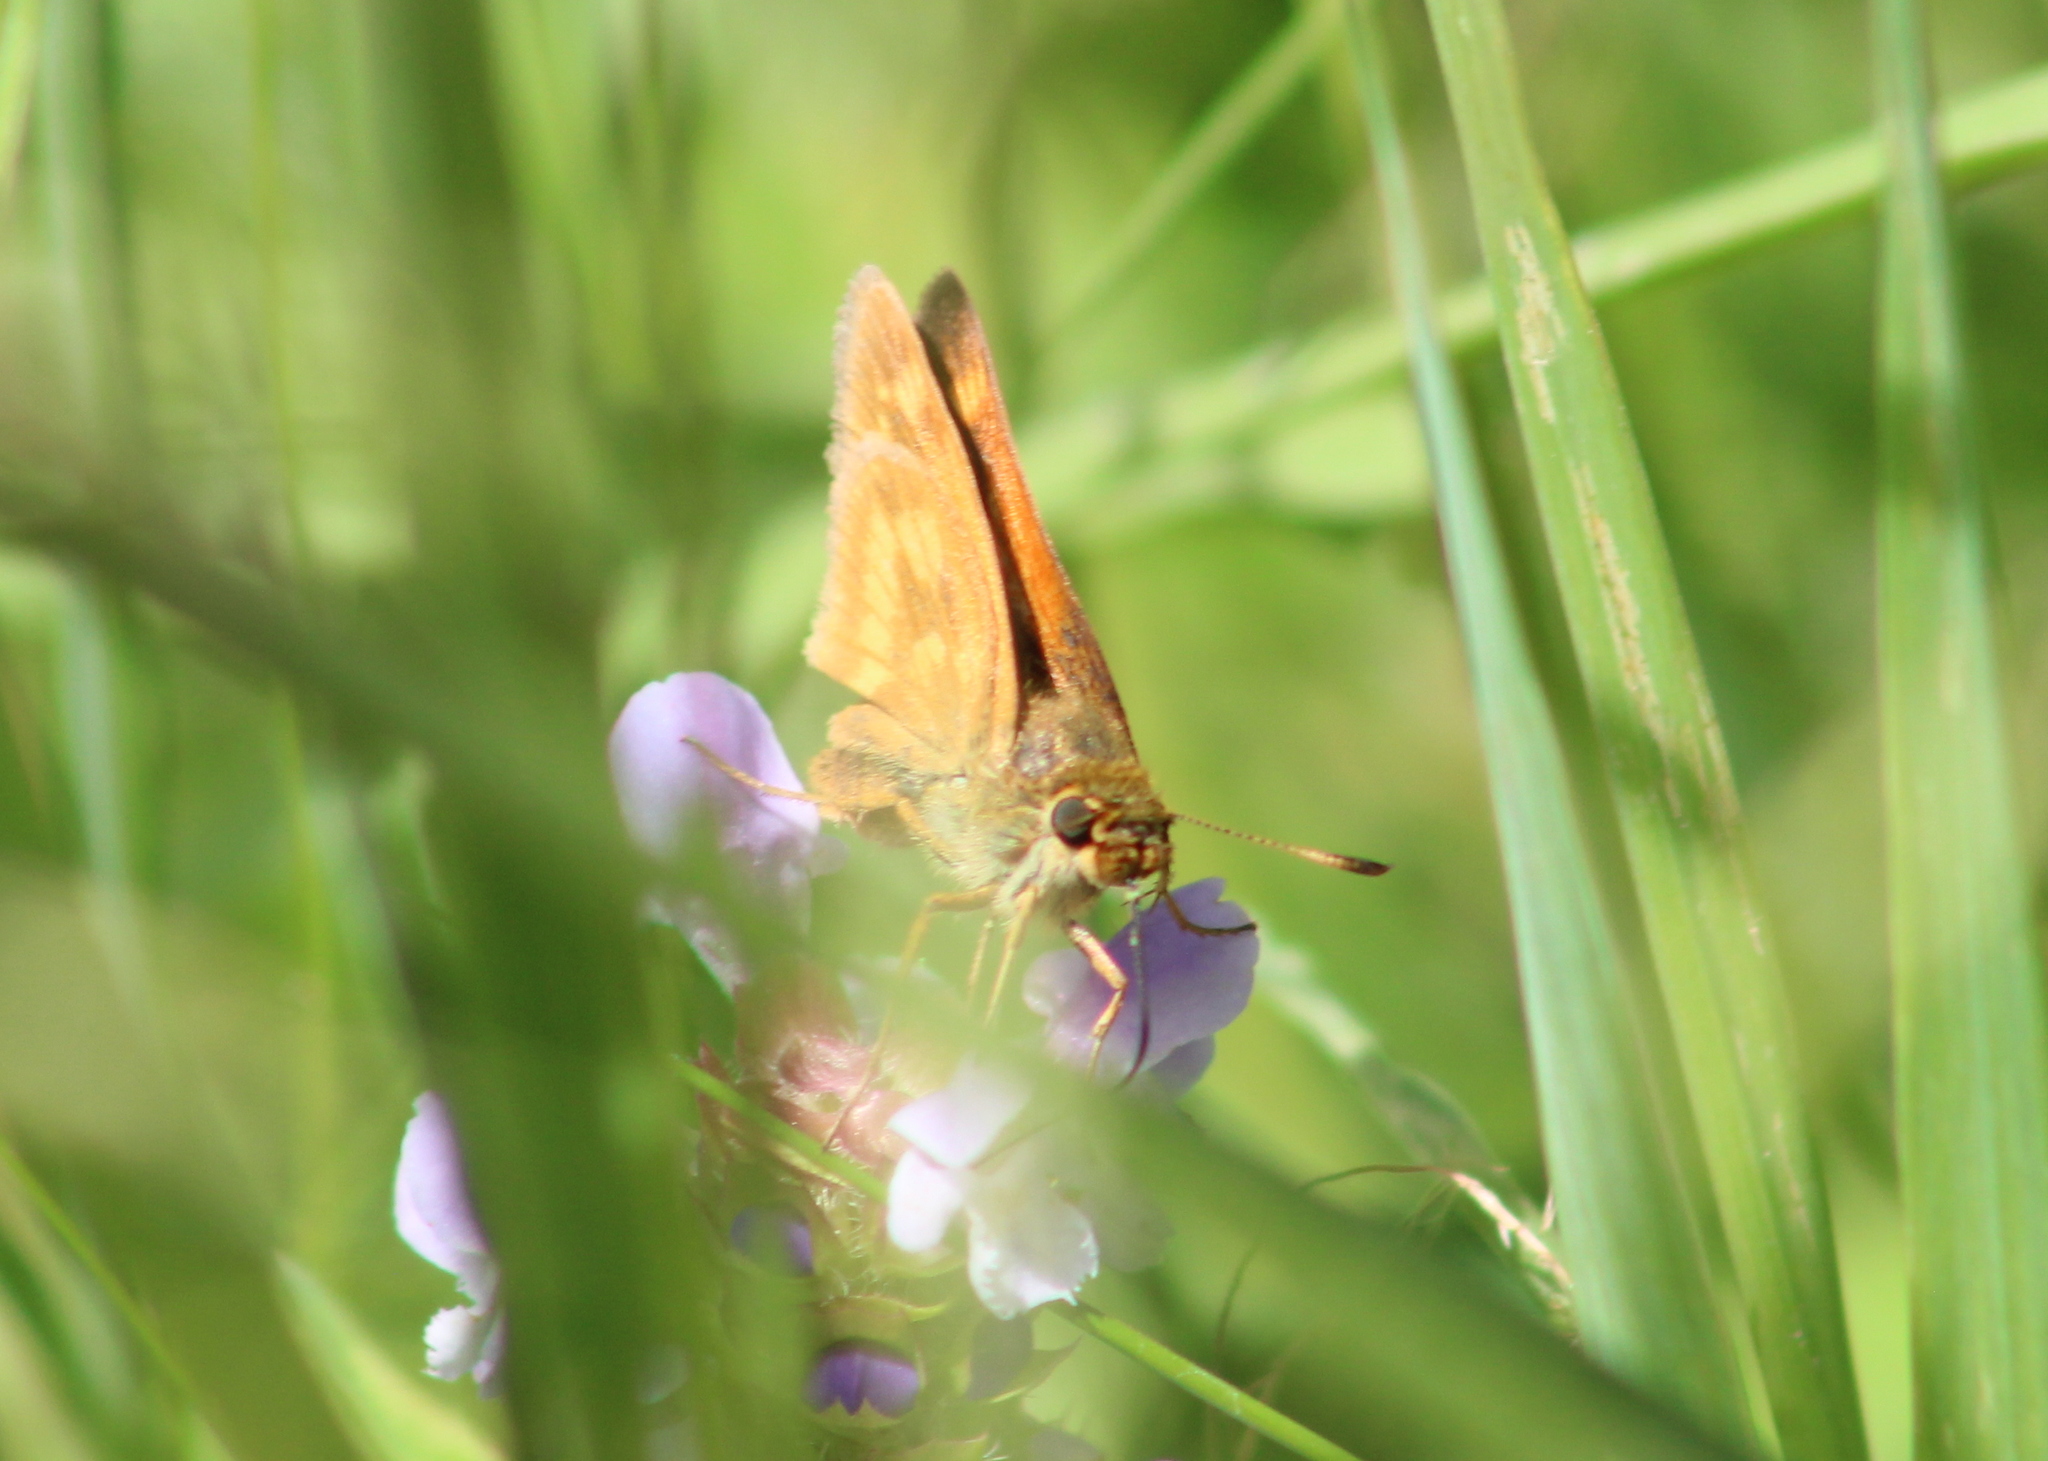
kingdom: Animalia
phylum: Arthropoda
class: Insecta
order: Lepidoptera
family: Hesperiidae
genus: Polites
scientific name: Polites mystic
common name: Long dash
